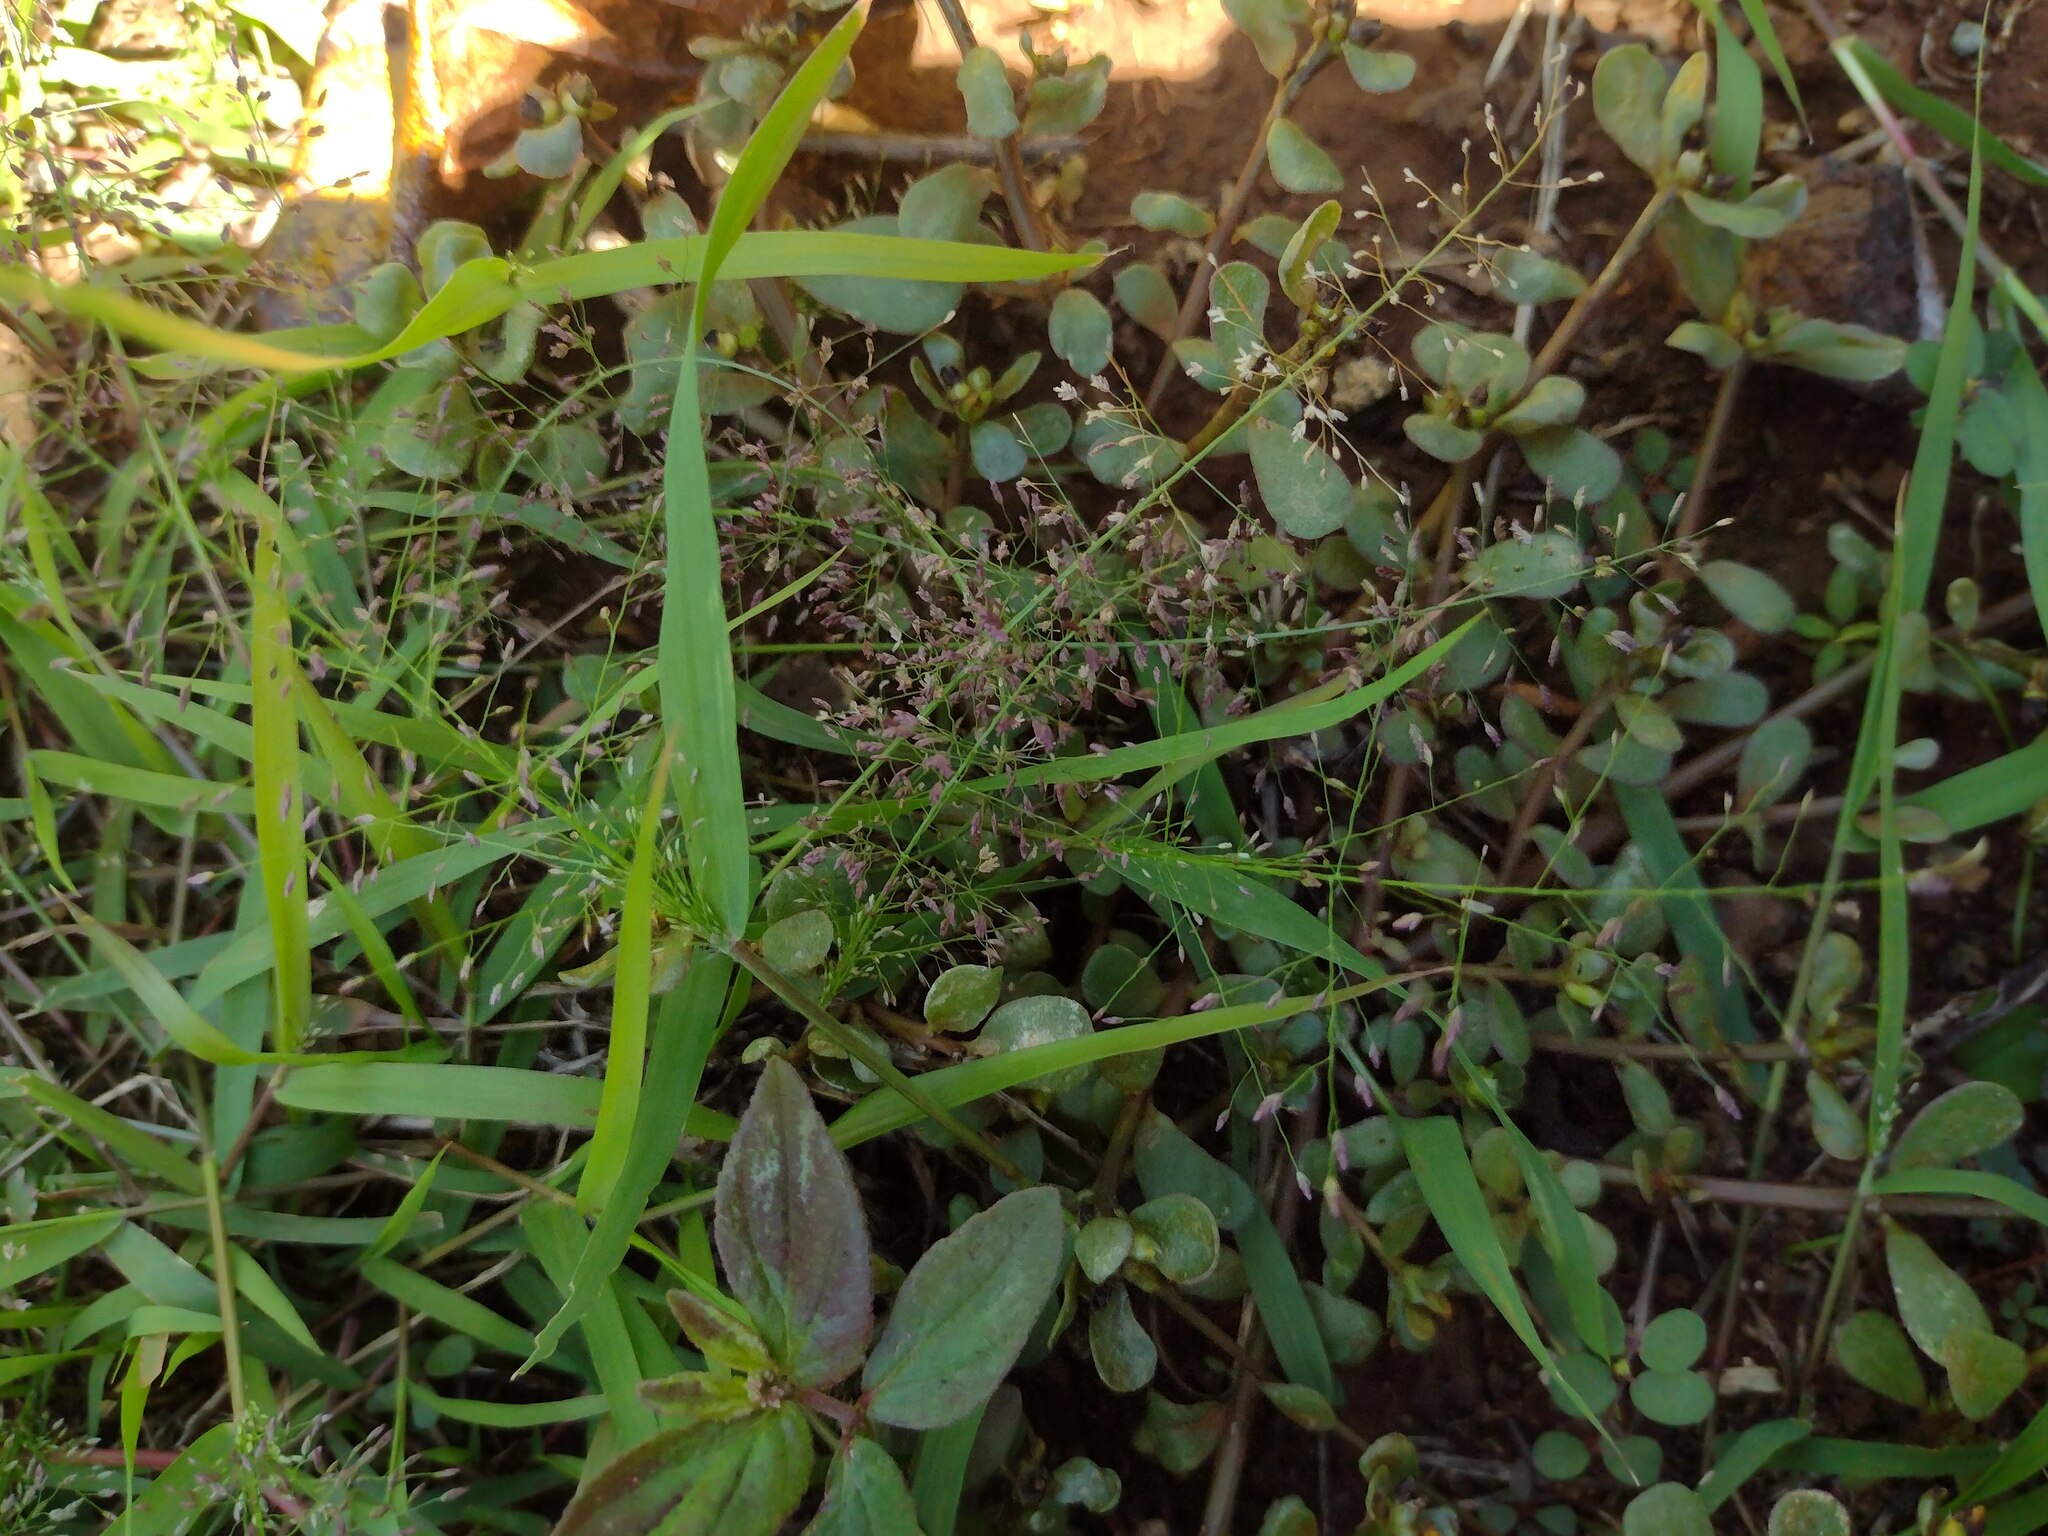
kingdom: Plantae
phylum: Tracheophyta
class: Liliopsida
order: Poales
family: Poaceae
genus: Eragrostis
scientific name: Eragrostis tenella
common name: Japanese lovegrass
